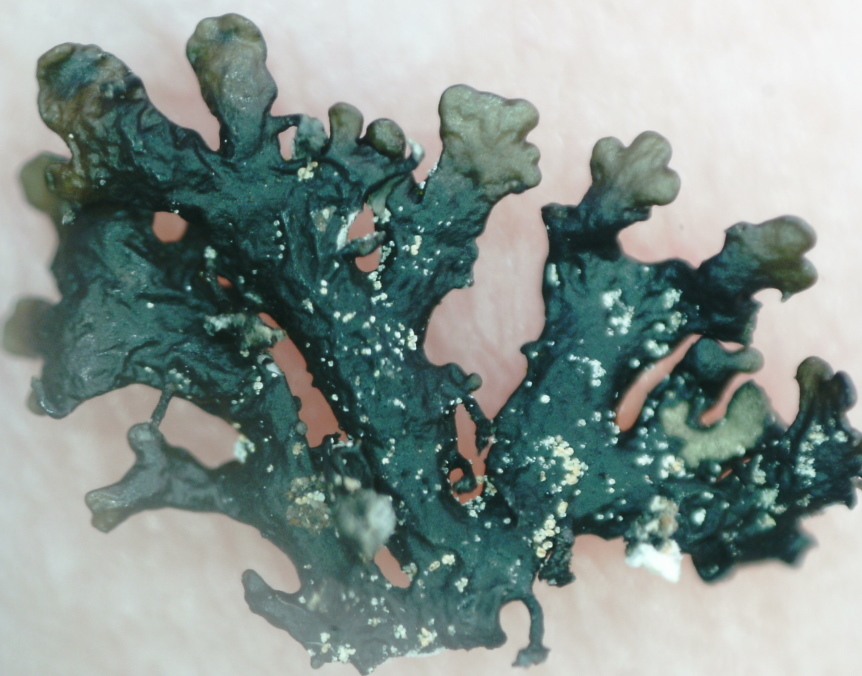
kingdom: Fungi
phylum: Ascomycota
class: Lecanoromycetes
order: Lecanorales
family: Parmeliaceae
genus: Melanelia
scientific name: Melanelia hepatizon
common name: Rimmed camouflage lichen
